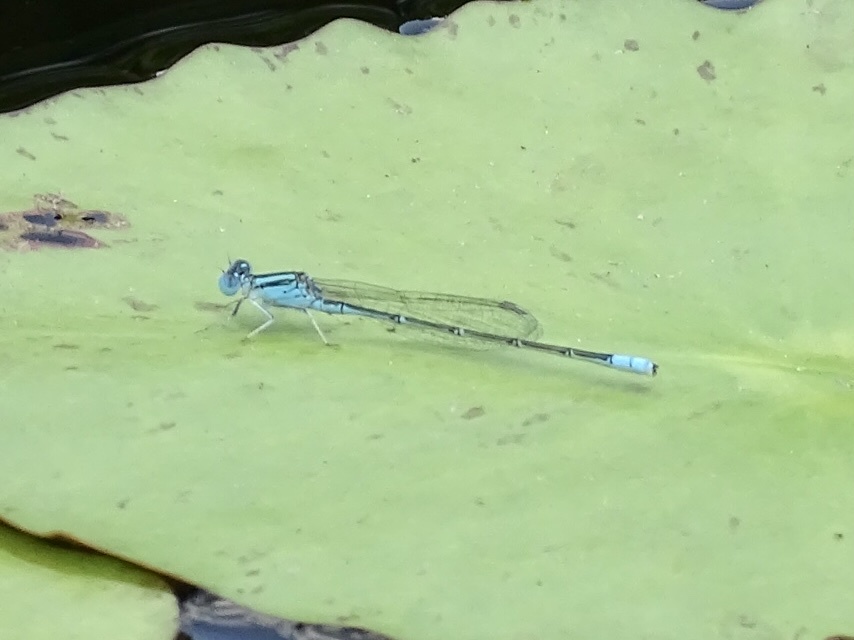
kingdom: Animalia
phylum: Arthropoda
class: Insecta
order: Odonata
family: Coenagrionidae
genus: Paracercion
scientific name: Paracercion melanotum
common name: Eastern lilysquatter
